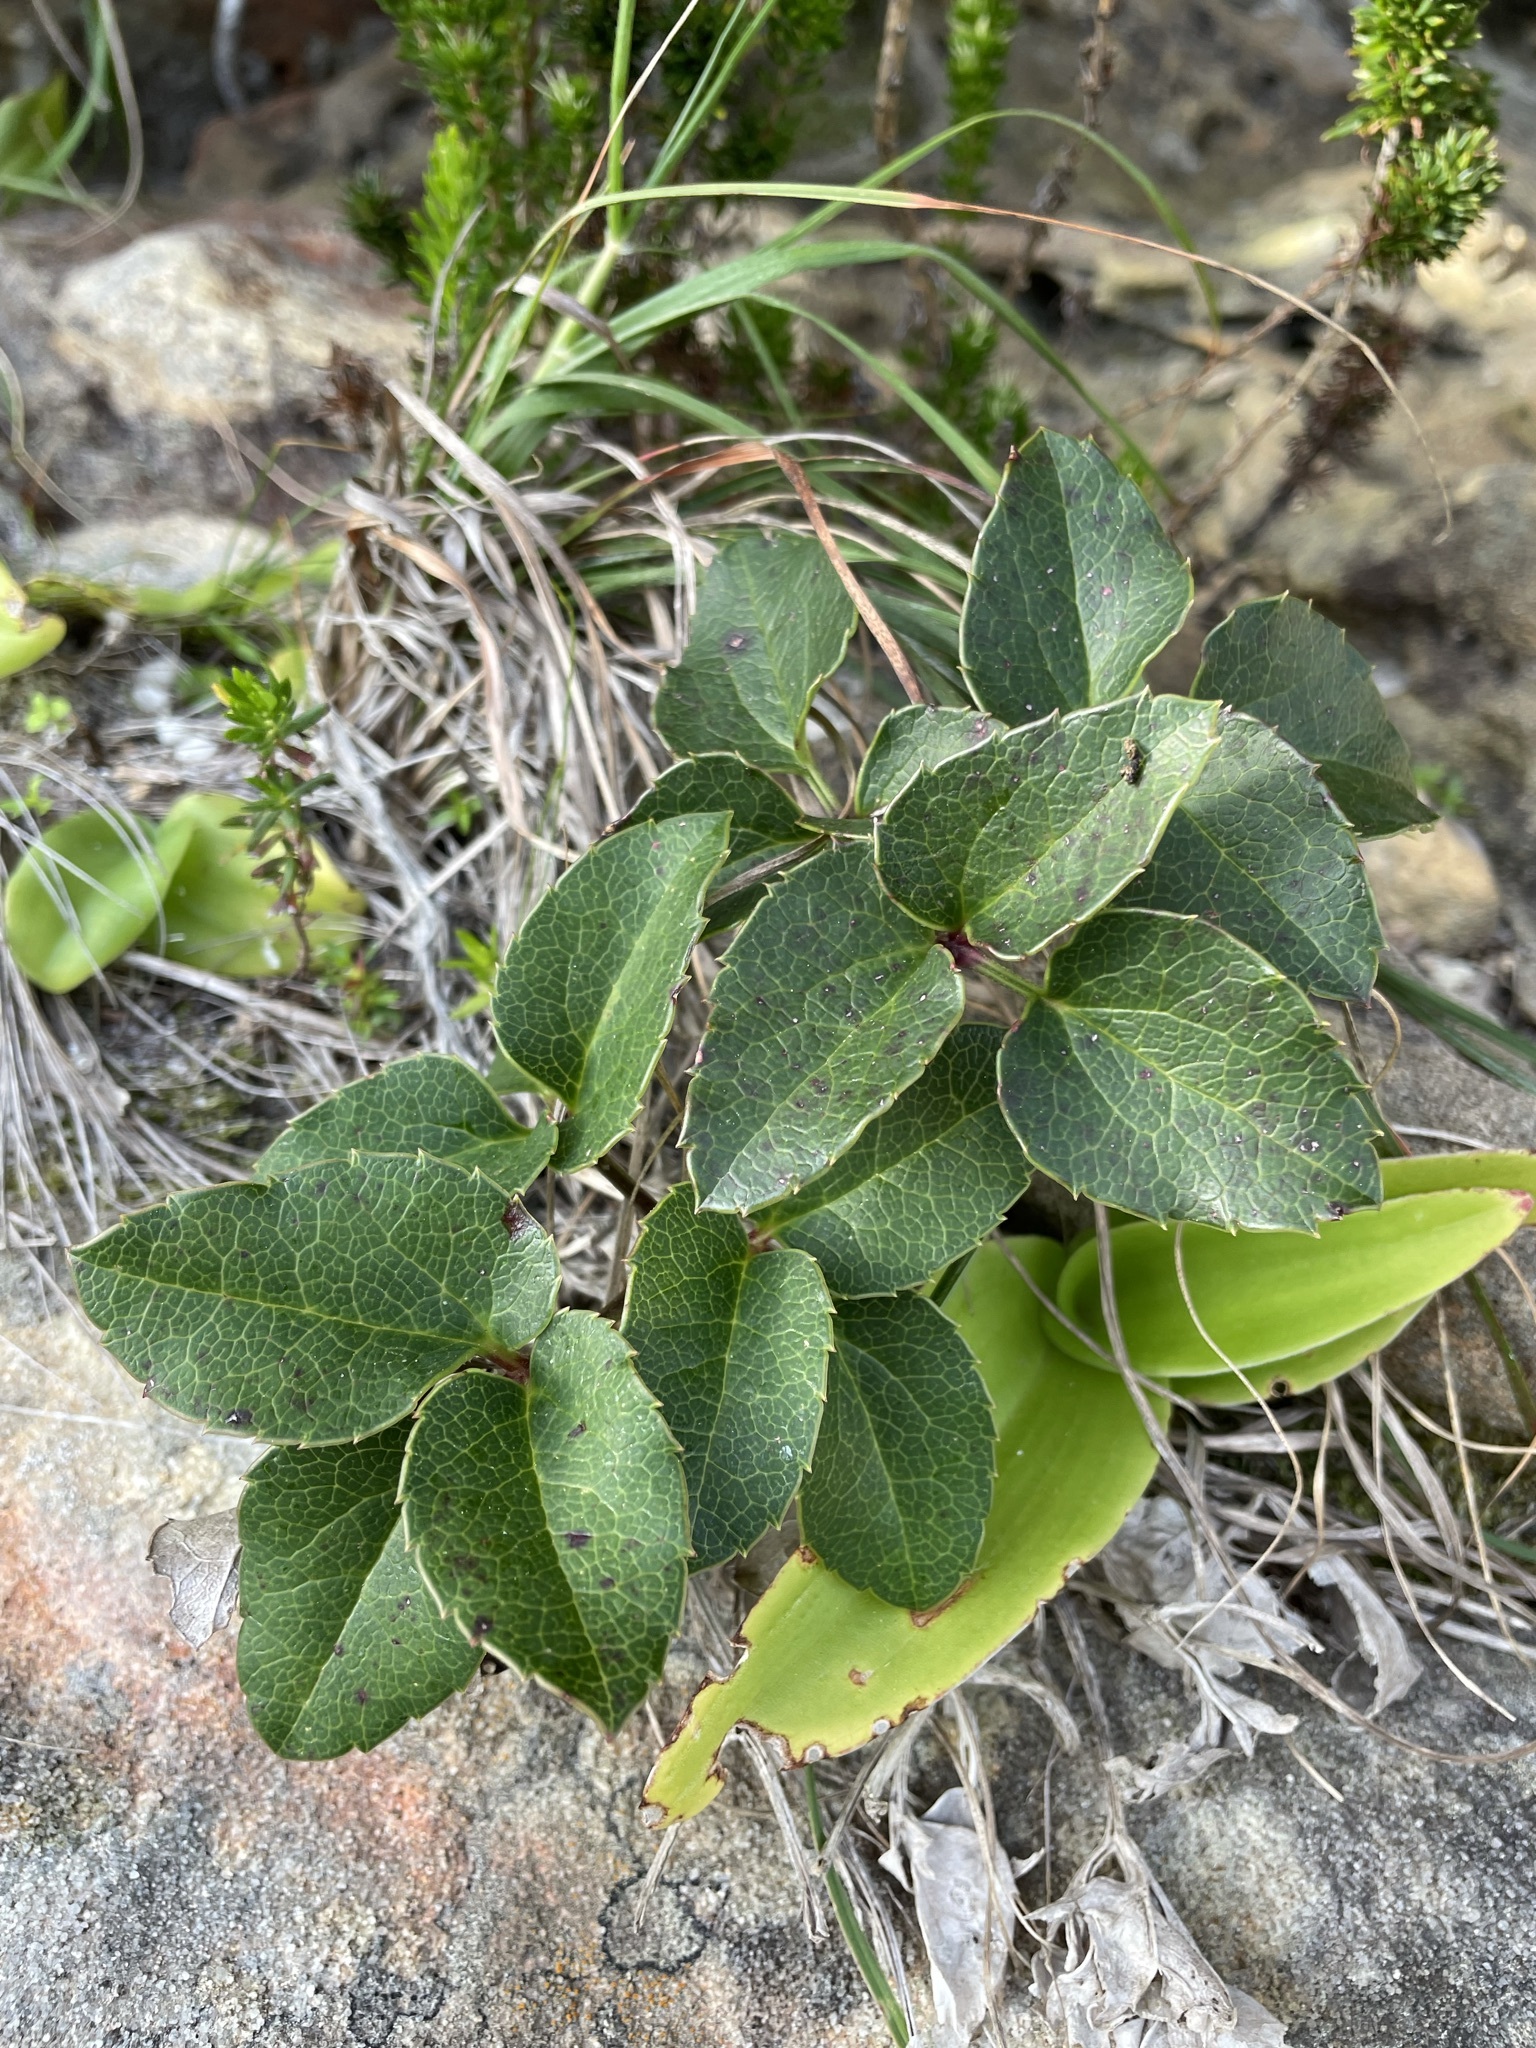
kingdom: Plantae
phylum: Tracheophyta
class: Magnoliopsida
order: Ranunculales
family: Ranunculaceae
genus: Knowltonia
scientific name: Knowltonia vesicatoria
